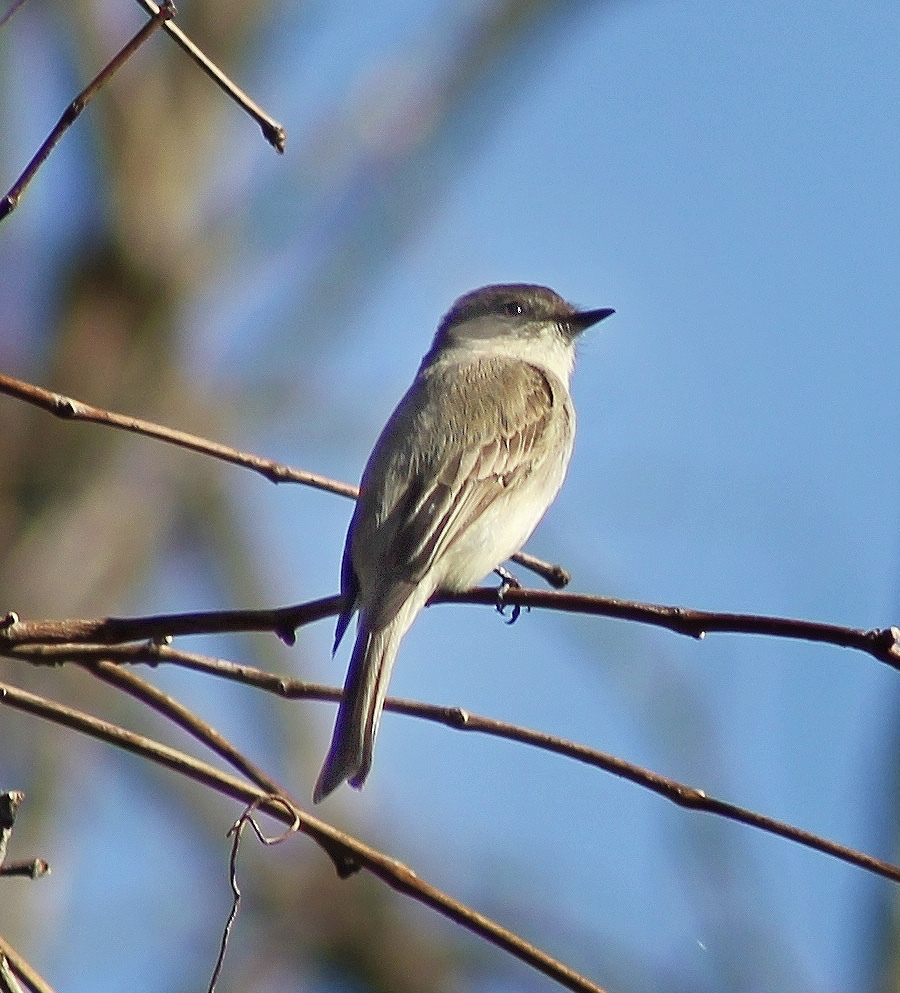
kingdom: Animalia
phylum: Chordata
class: Aves
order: Passeriformes
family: Tyrannidae
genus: Sayornis
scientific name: Sayornis phoebe
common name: Eastern phoebe
